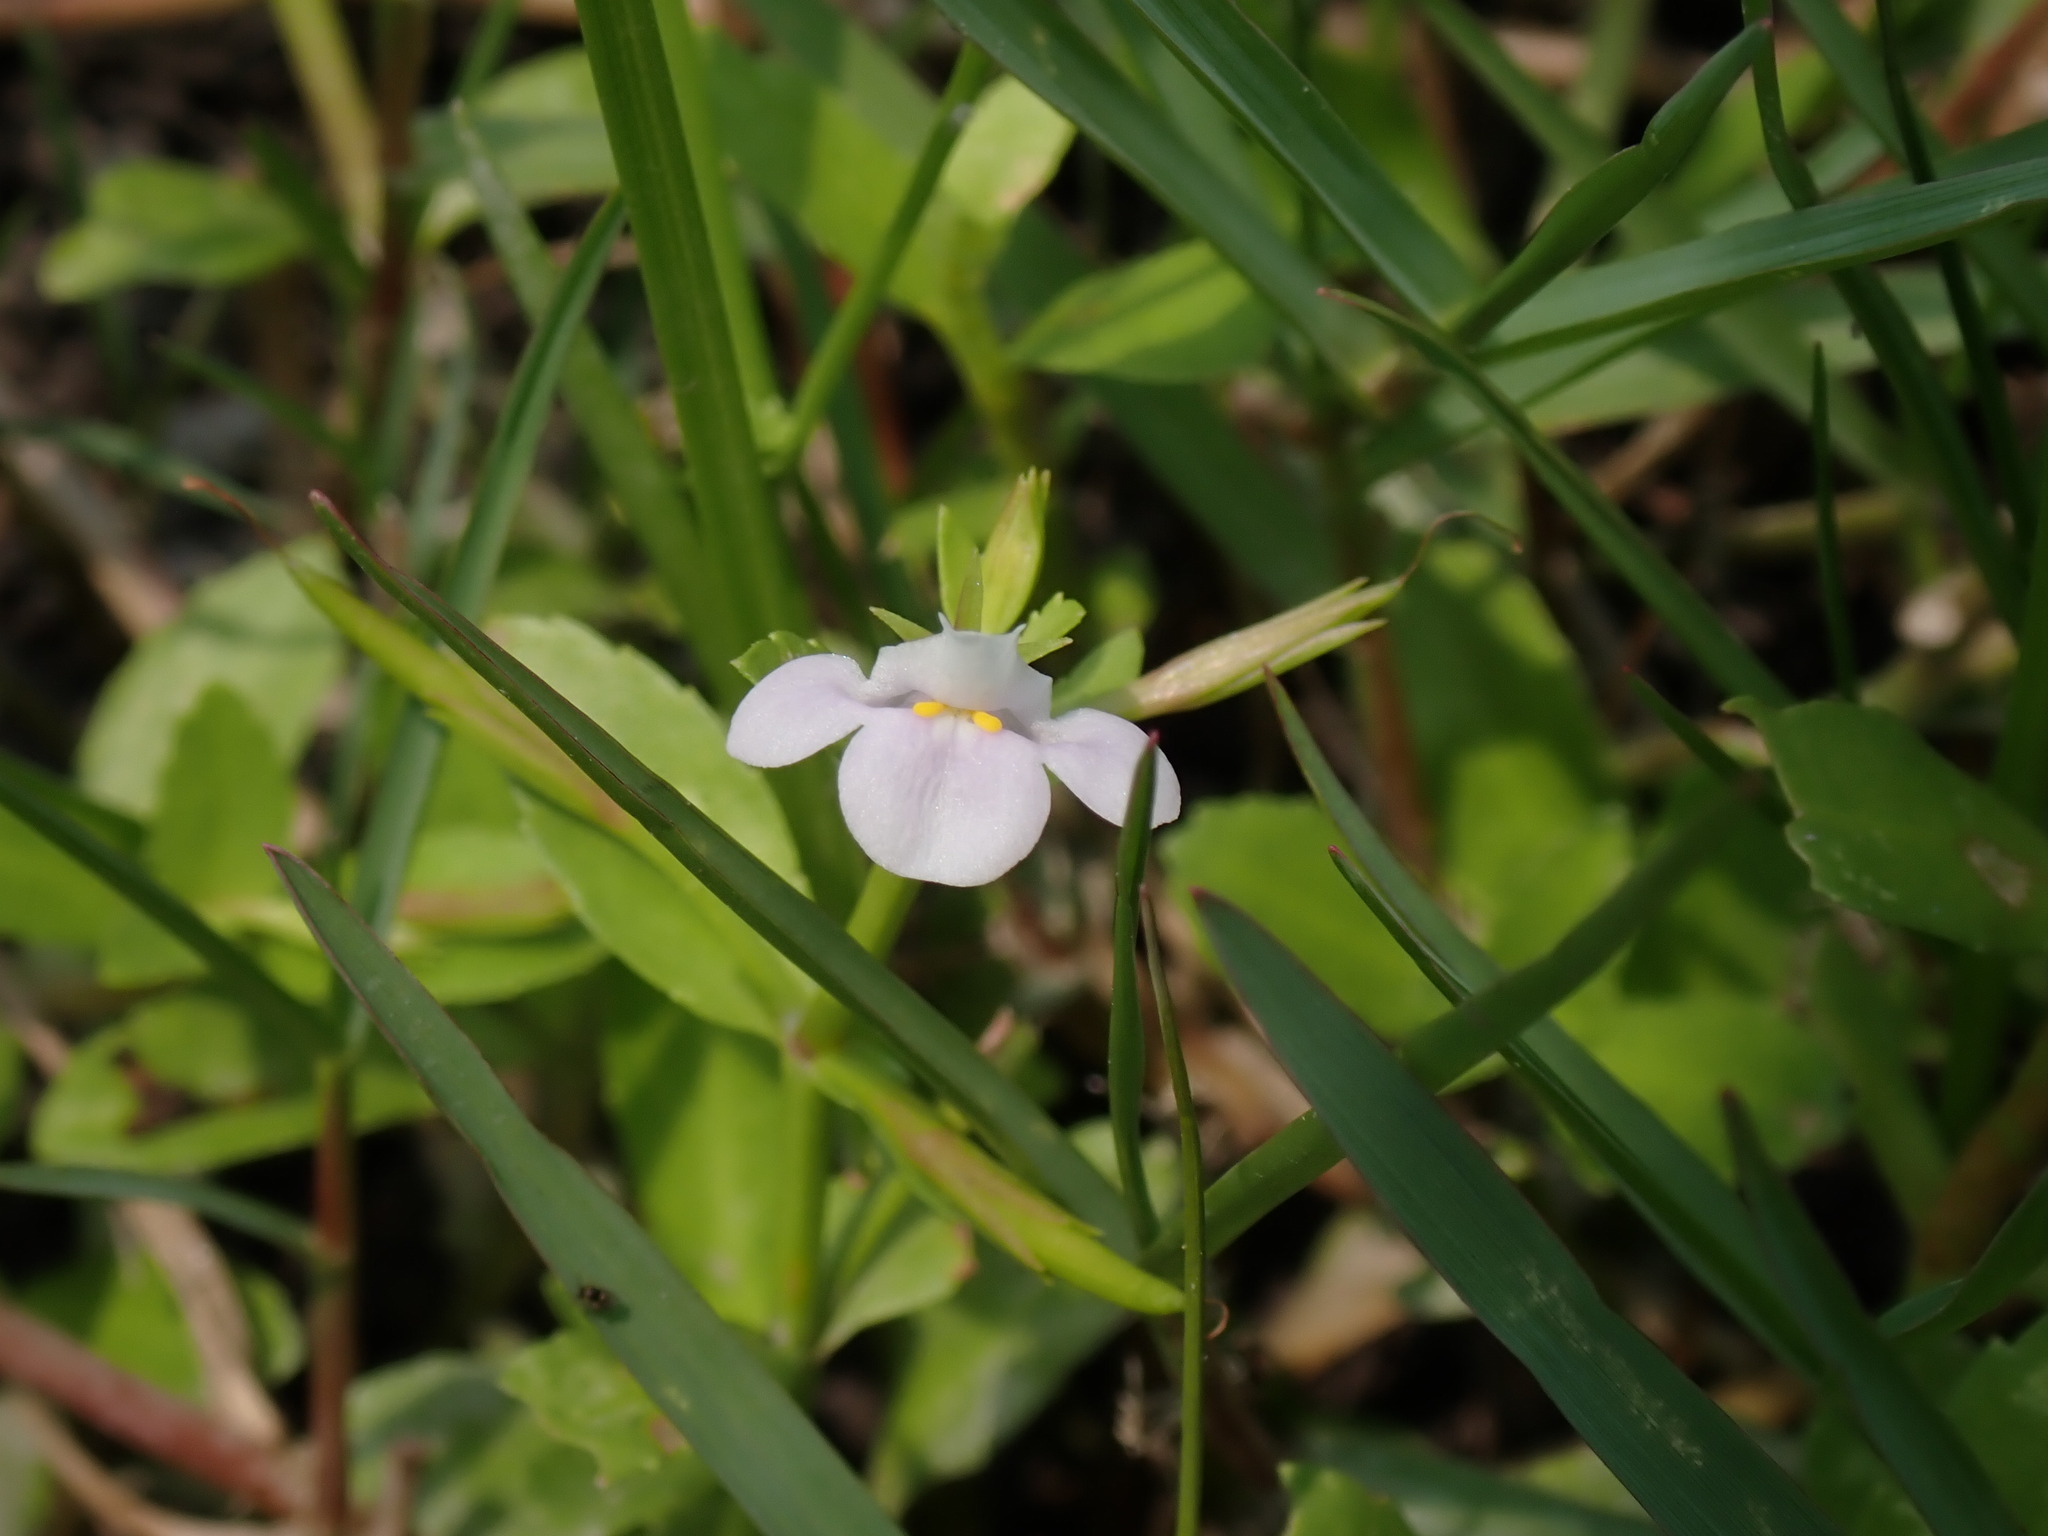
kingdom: Plantae
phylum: Tracheophyta
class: Magnoliopsida
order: Lamiales
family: Linderniaceae
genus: Bonnaya
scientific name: Bonnaya antipoda
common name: Sparrow false pimpernel
